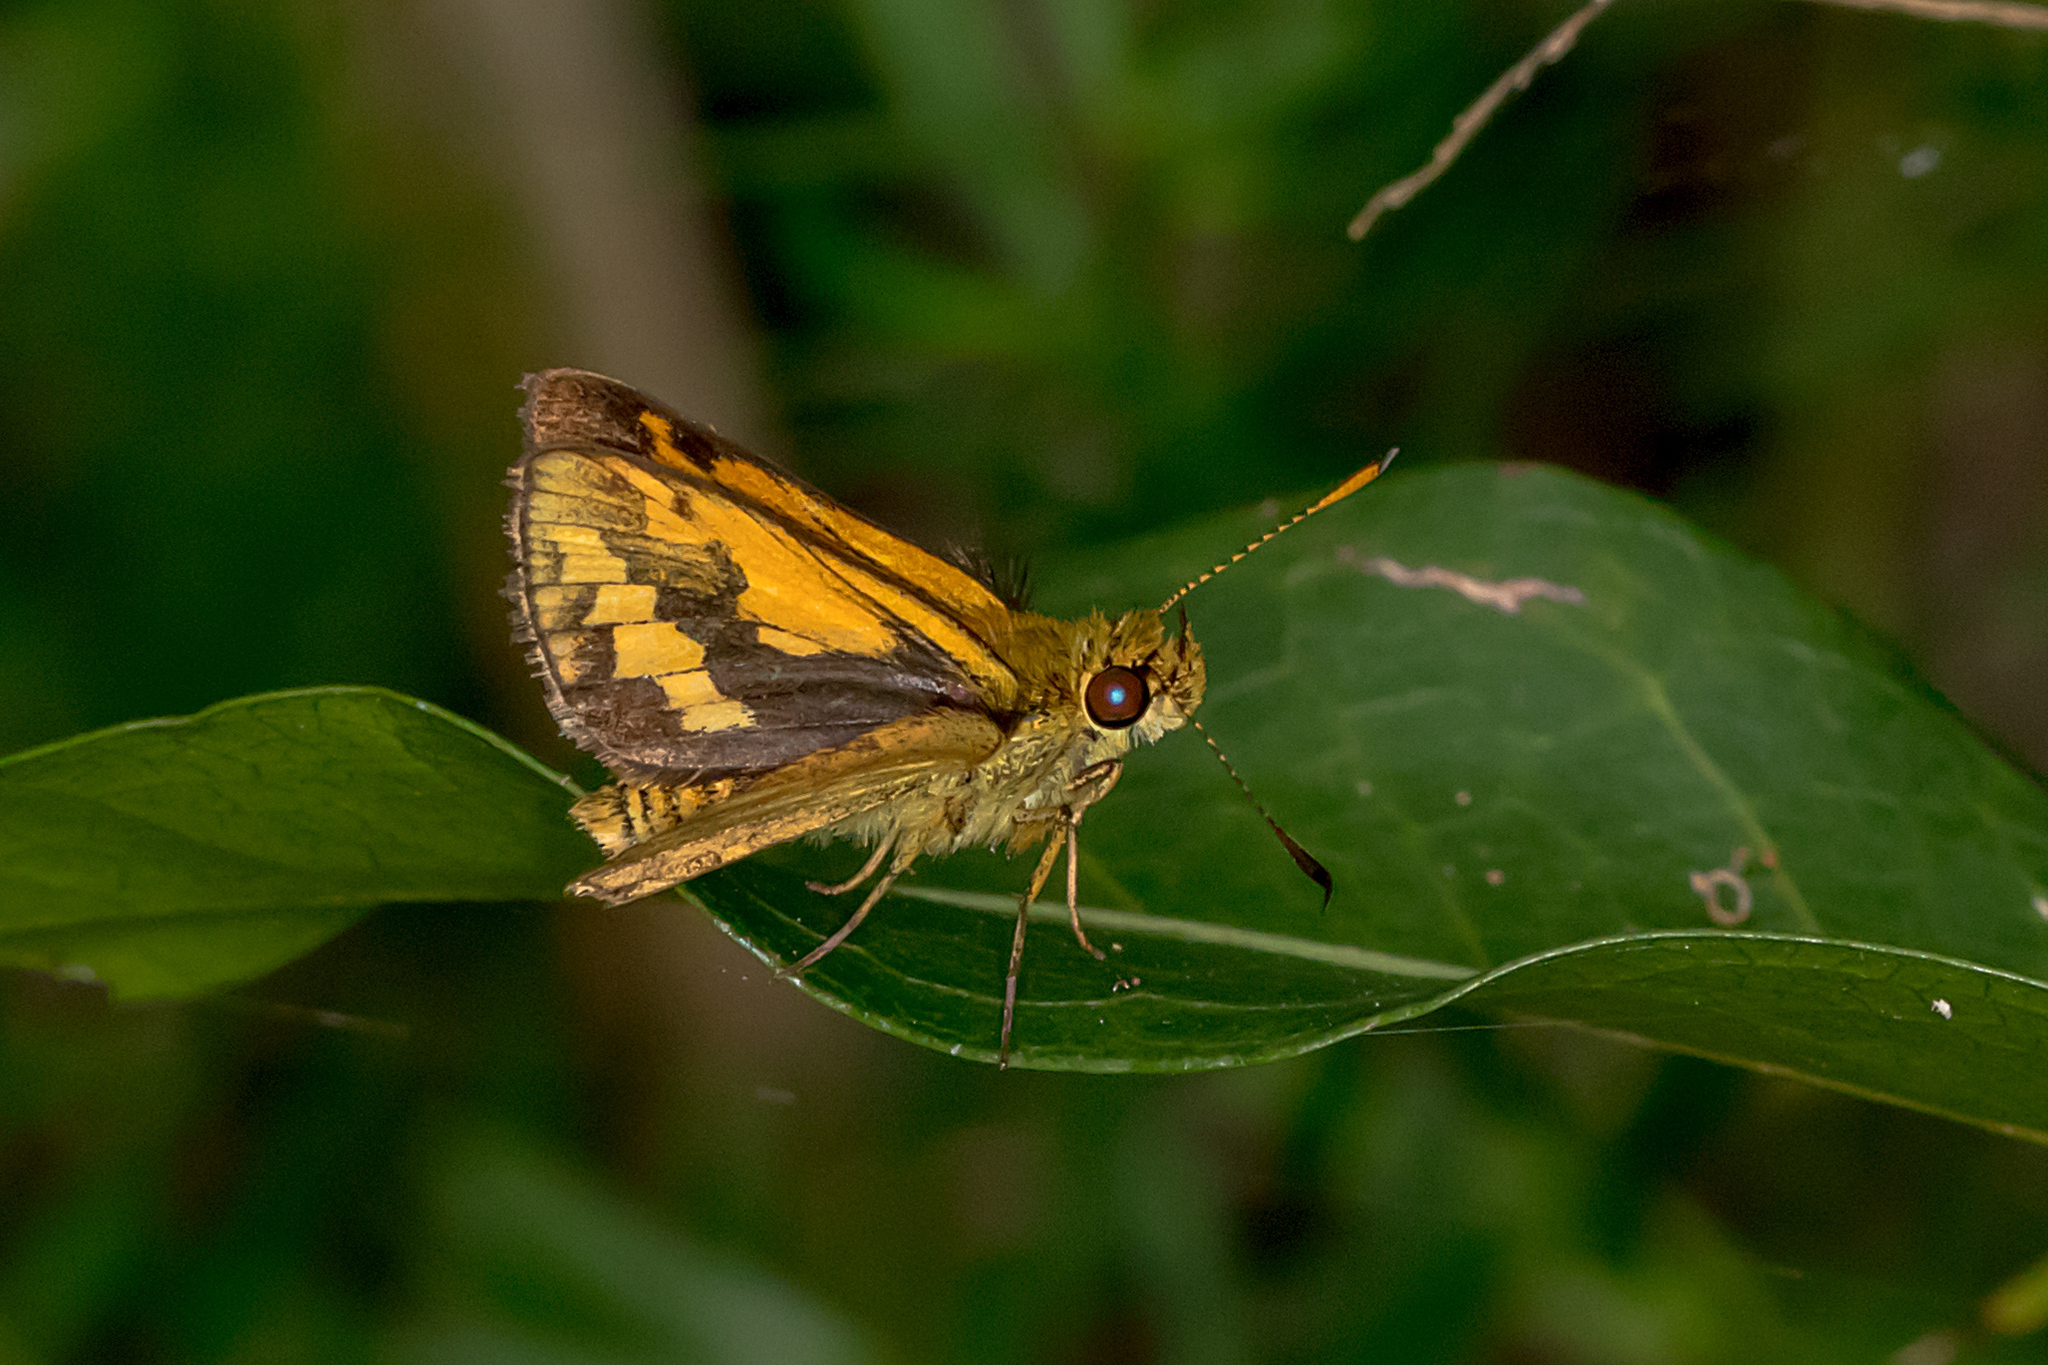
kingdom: Animalia
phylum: Arthropoda
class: Insecta
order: Lepidoptera
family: Hesperiidae
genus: Suniana
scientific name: Suniana sunias
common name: Wide-brand grass-dart
